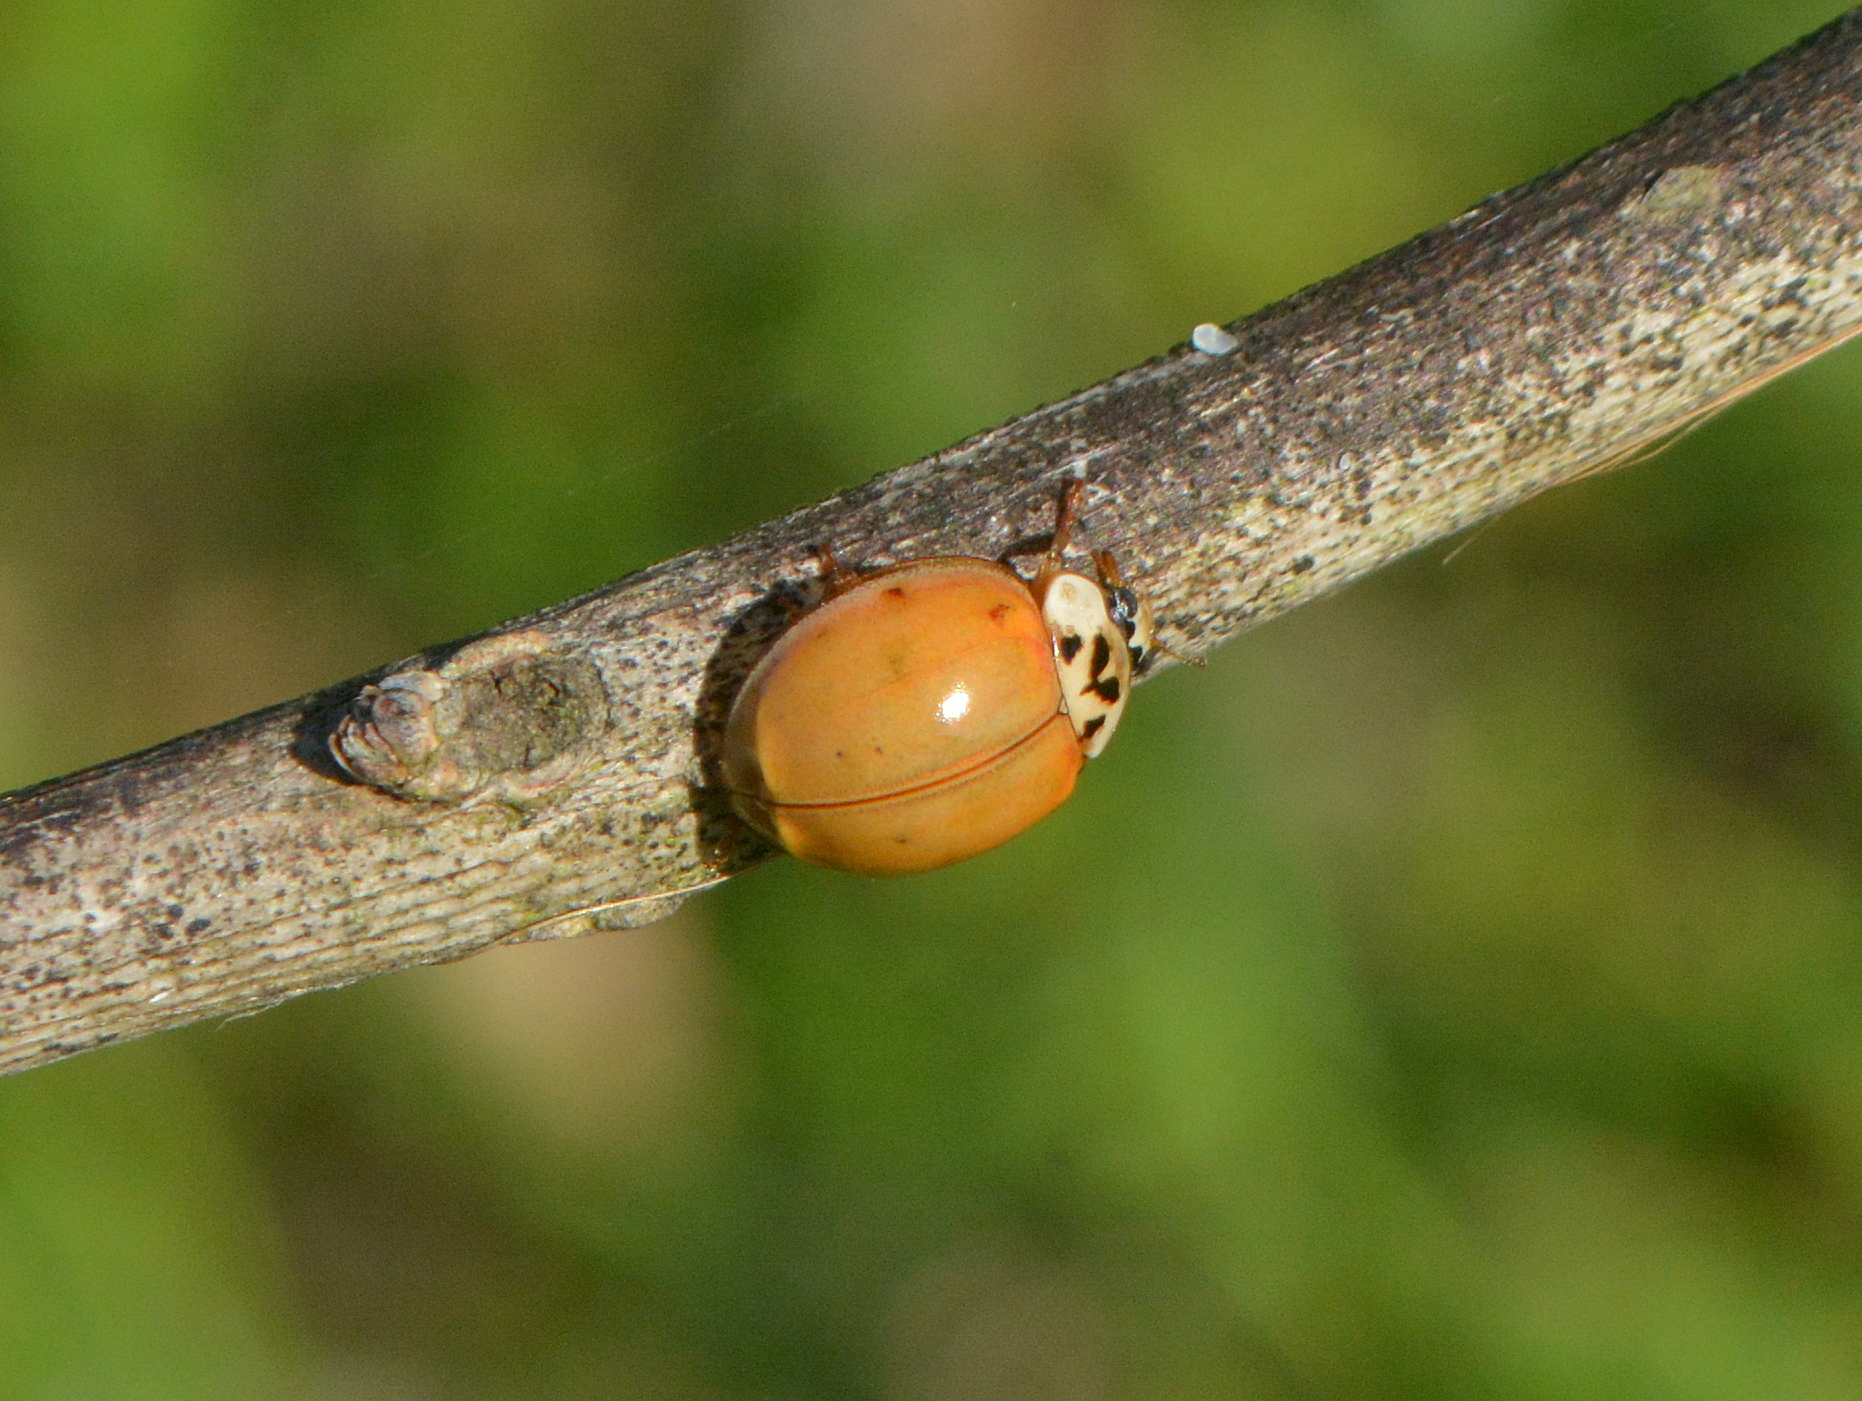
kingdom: Animalia
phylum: Arthropoda
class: Insecta
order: Coleoptera
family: Coccinellidae
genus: Harmonia
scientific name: Harmonia axyridis
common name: Harlequin ladybird
